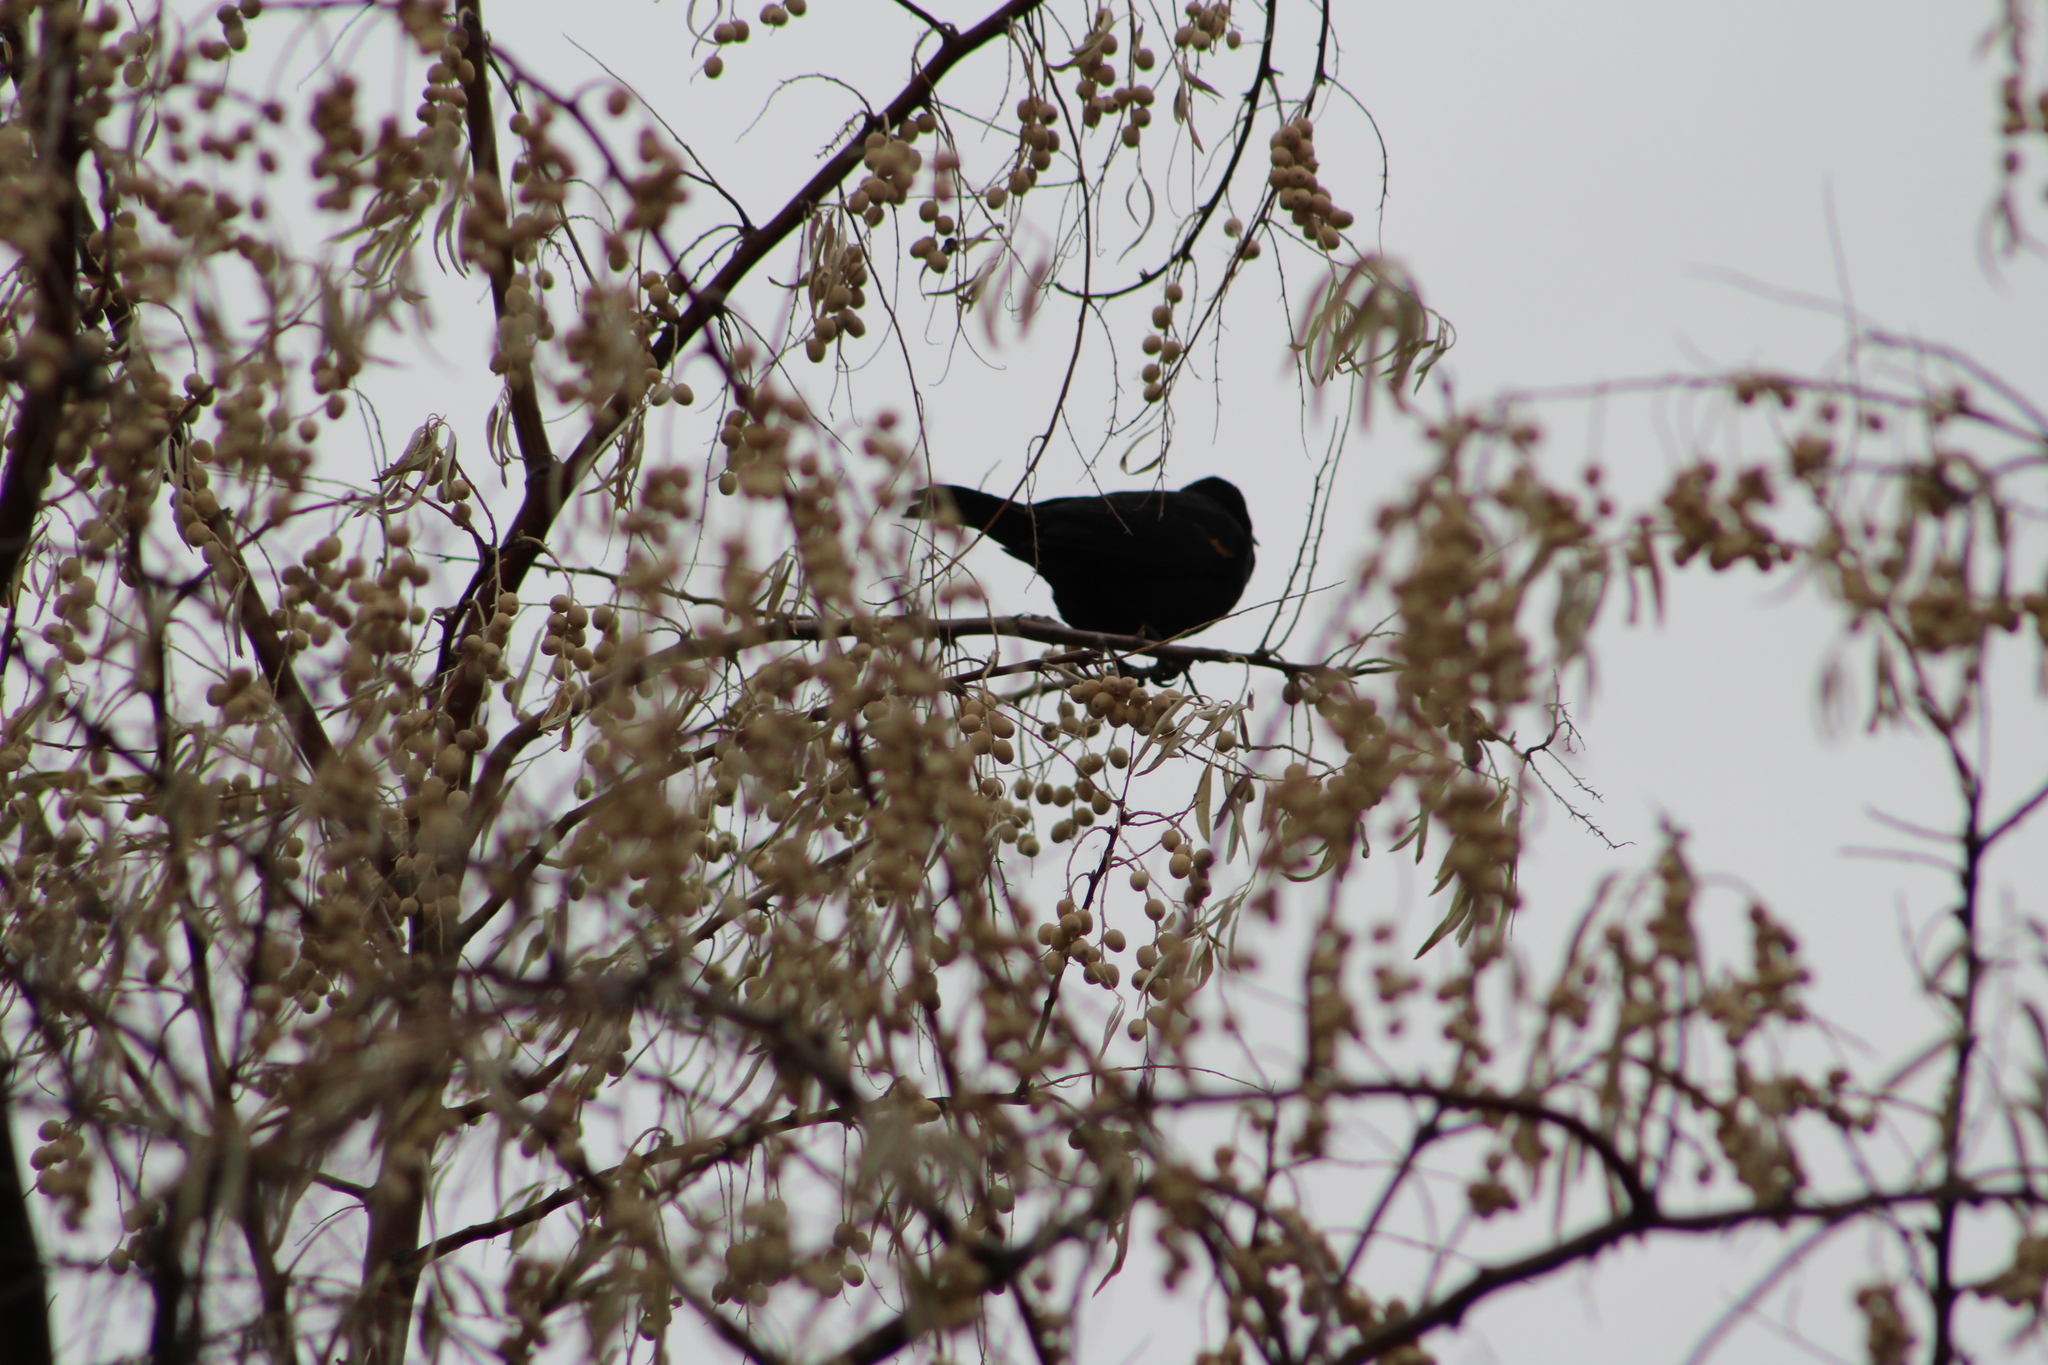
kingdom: Animalia
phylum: Chordata
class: Aves
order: Passeriformes
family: Icteridae
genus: Agelaius
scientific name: Agelaius phoeniceus
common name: Red-winged blackbird
